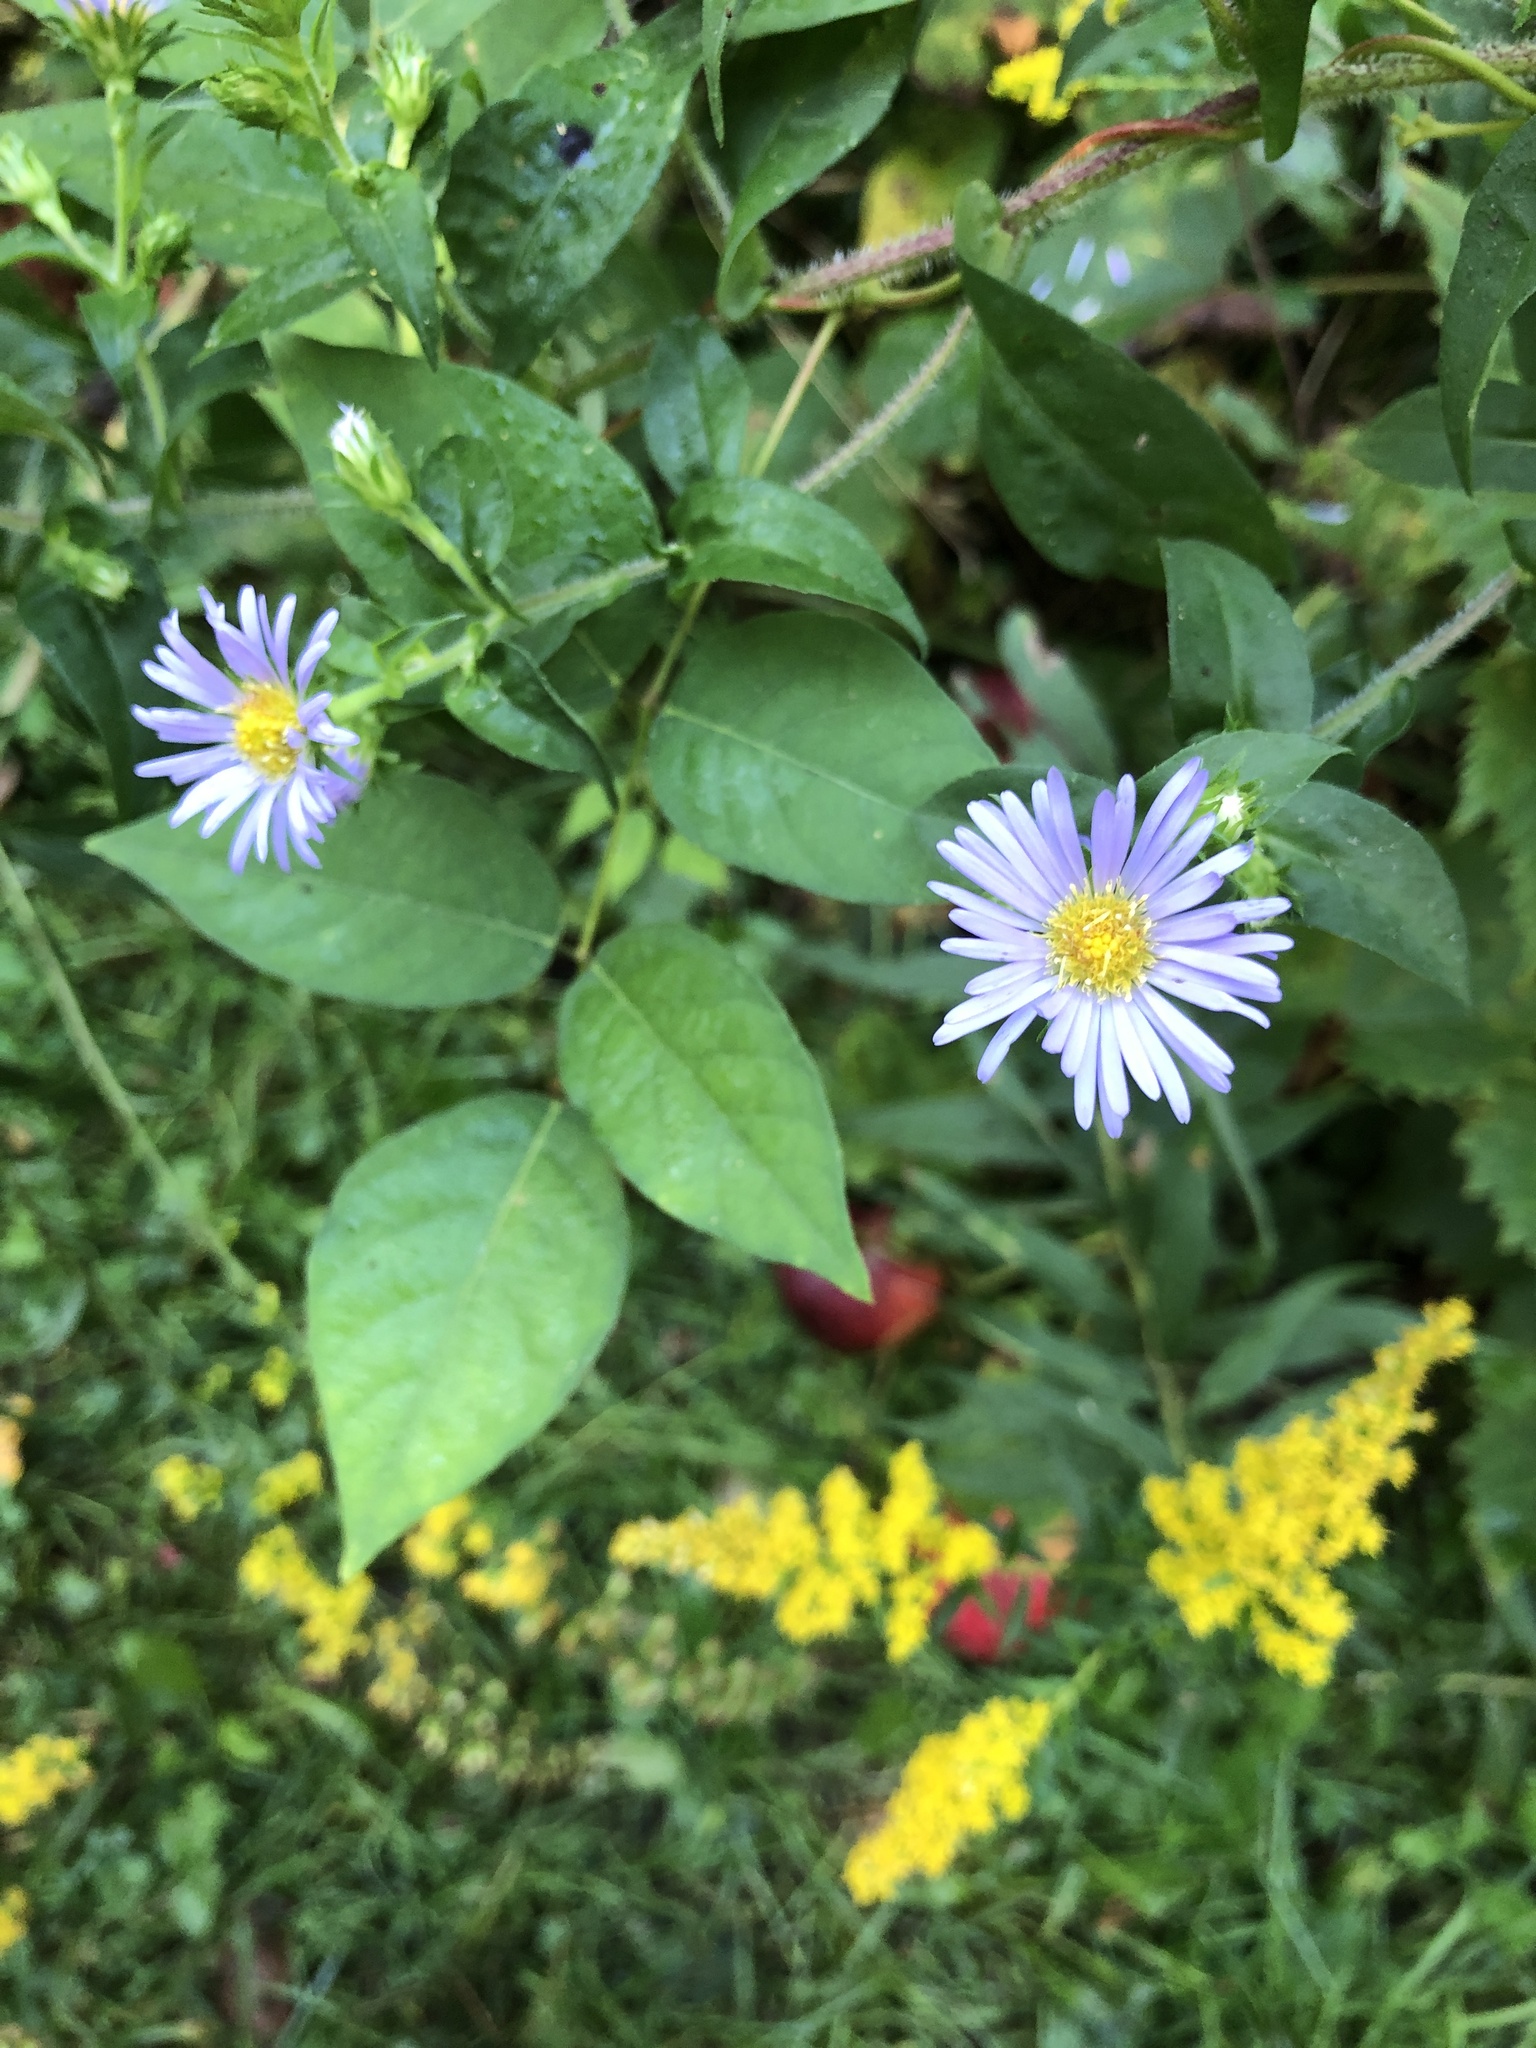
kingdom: Plantae
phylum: Tracheophyta
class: Magnoliopsida
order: Asterales
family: Asteraceae
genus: Symphyotrichum
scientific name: Symphyotrichum puniceum
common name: Bog aster
